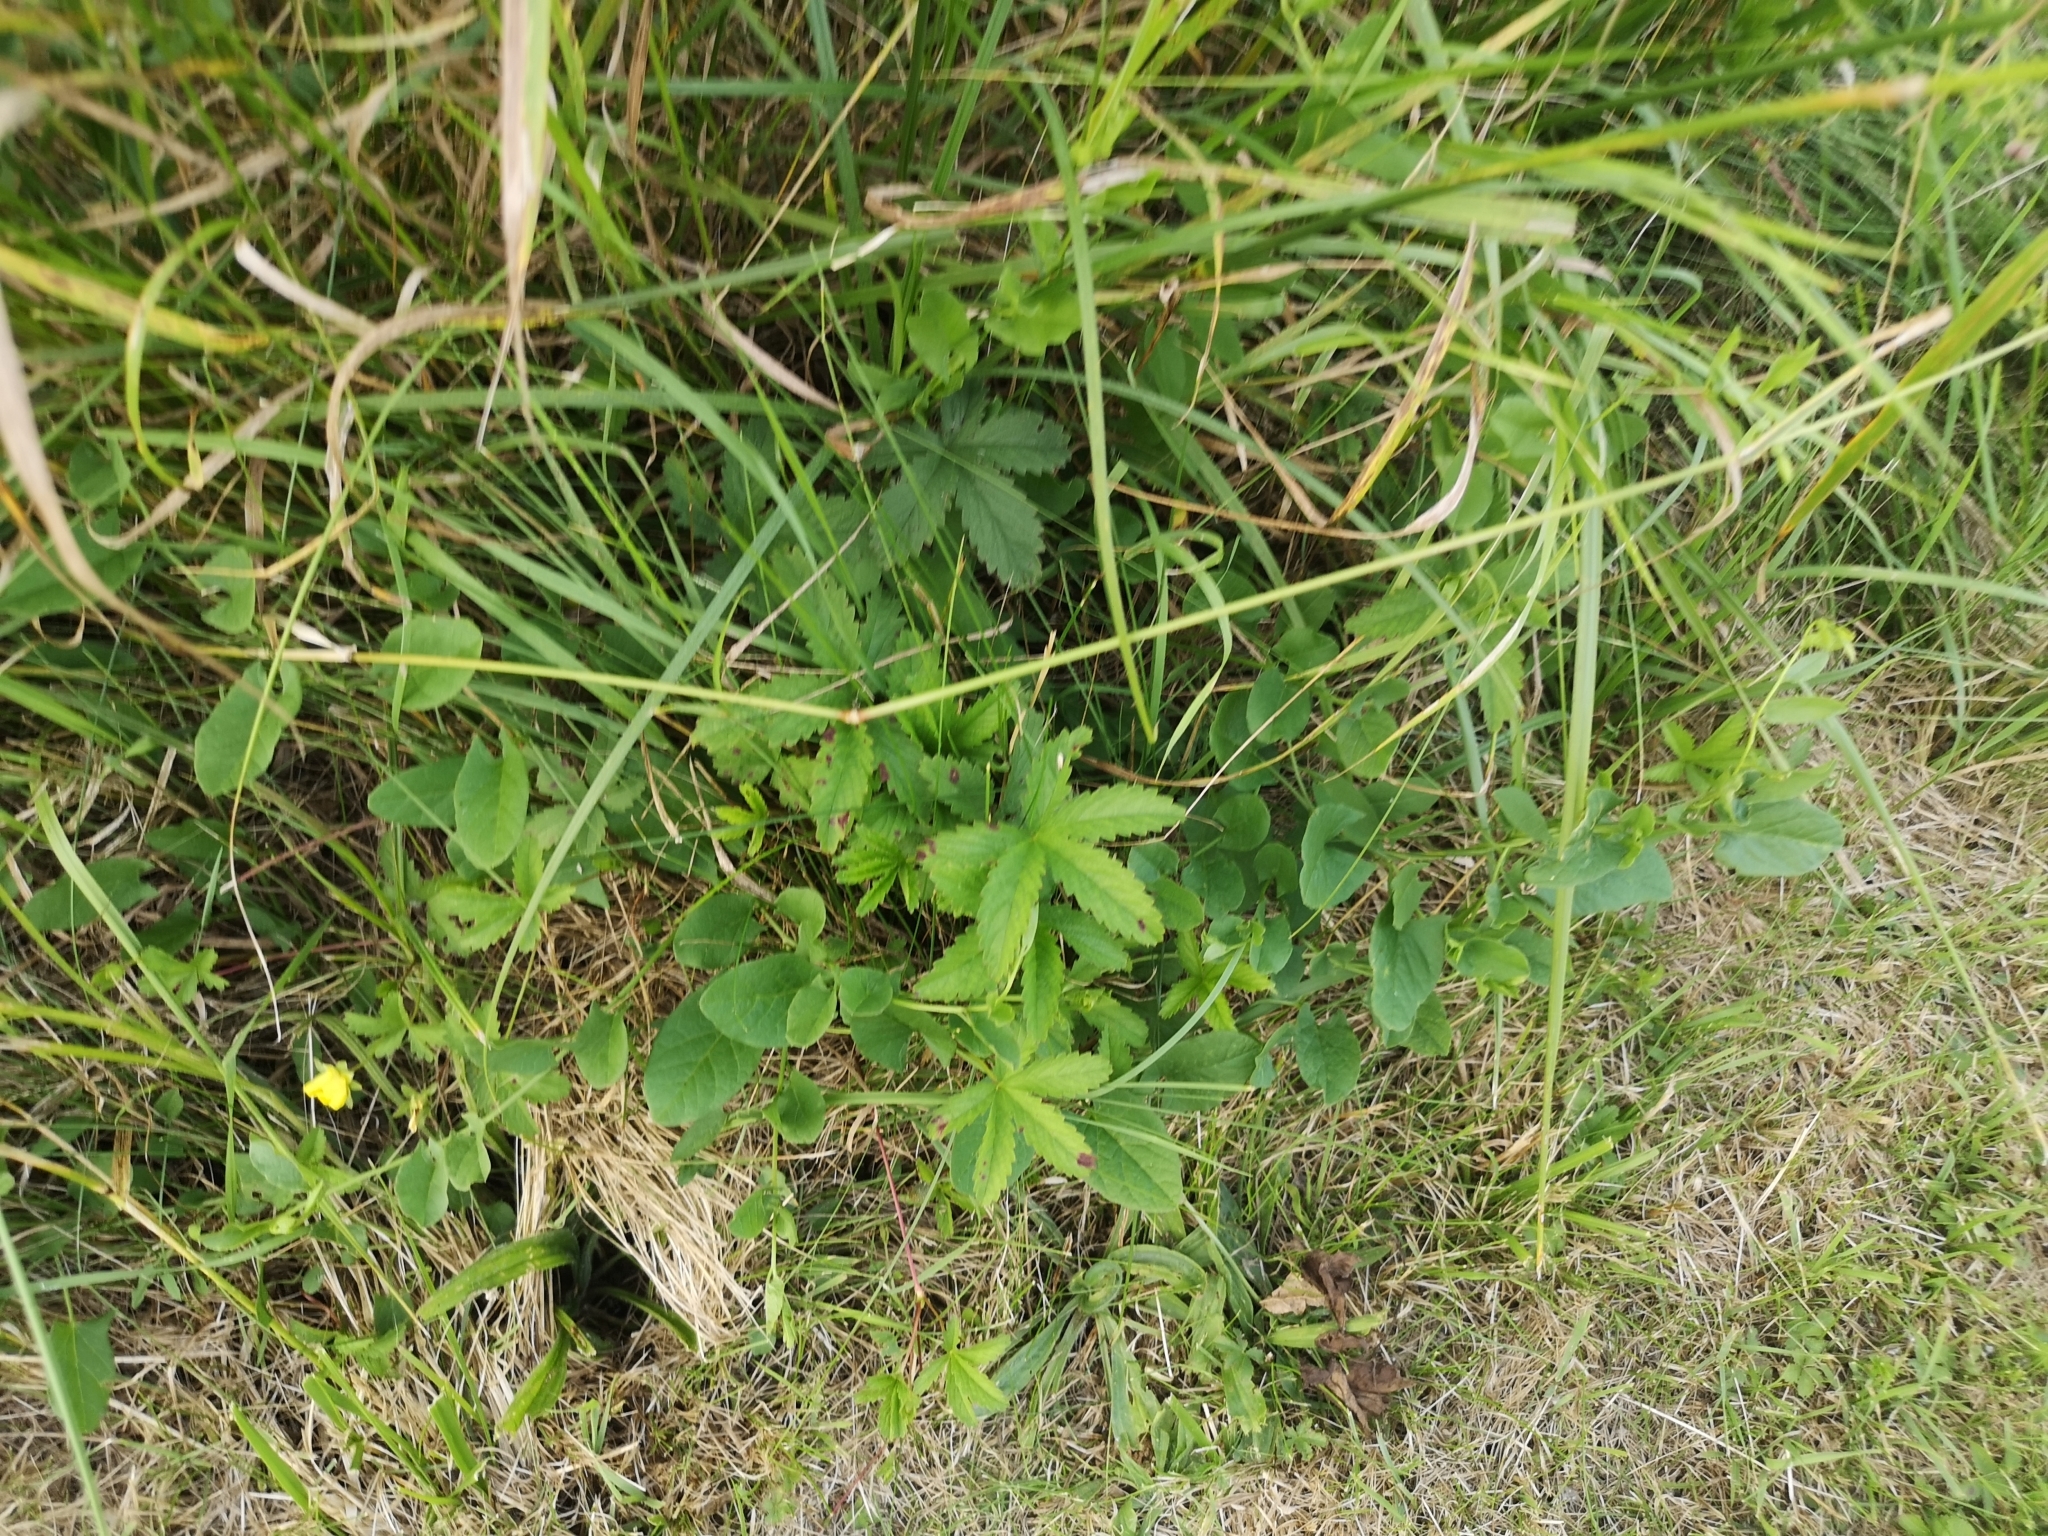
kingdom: Plantae
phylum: Tracheophyta
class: Magnoliopsida
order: Rosales
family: Rosaceae
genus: Potentilla
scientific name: Potentilla reptans
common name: Creeping cinquefoil
